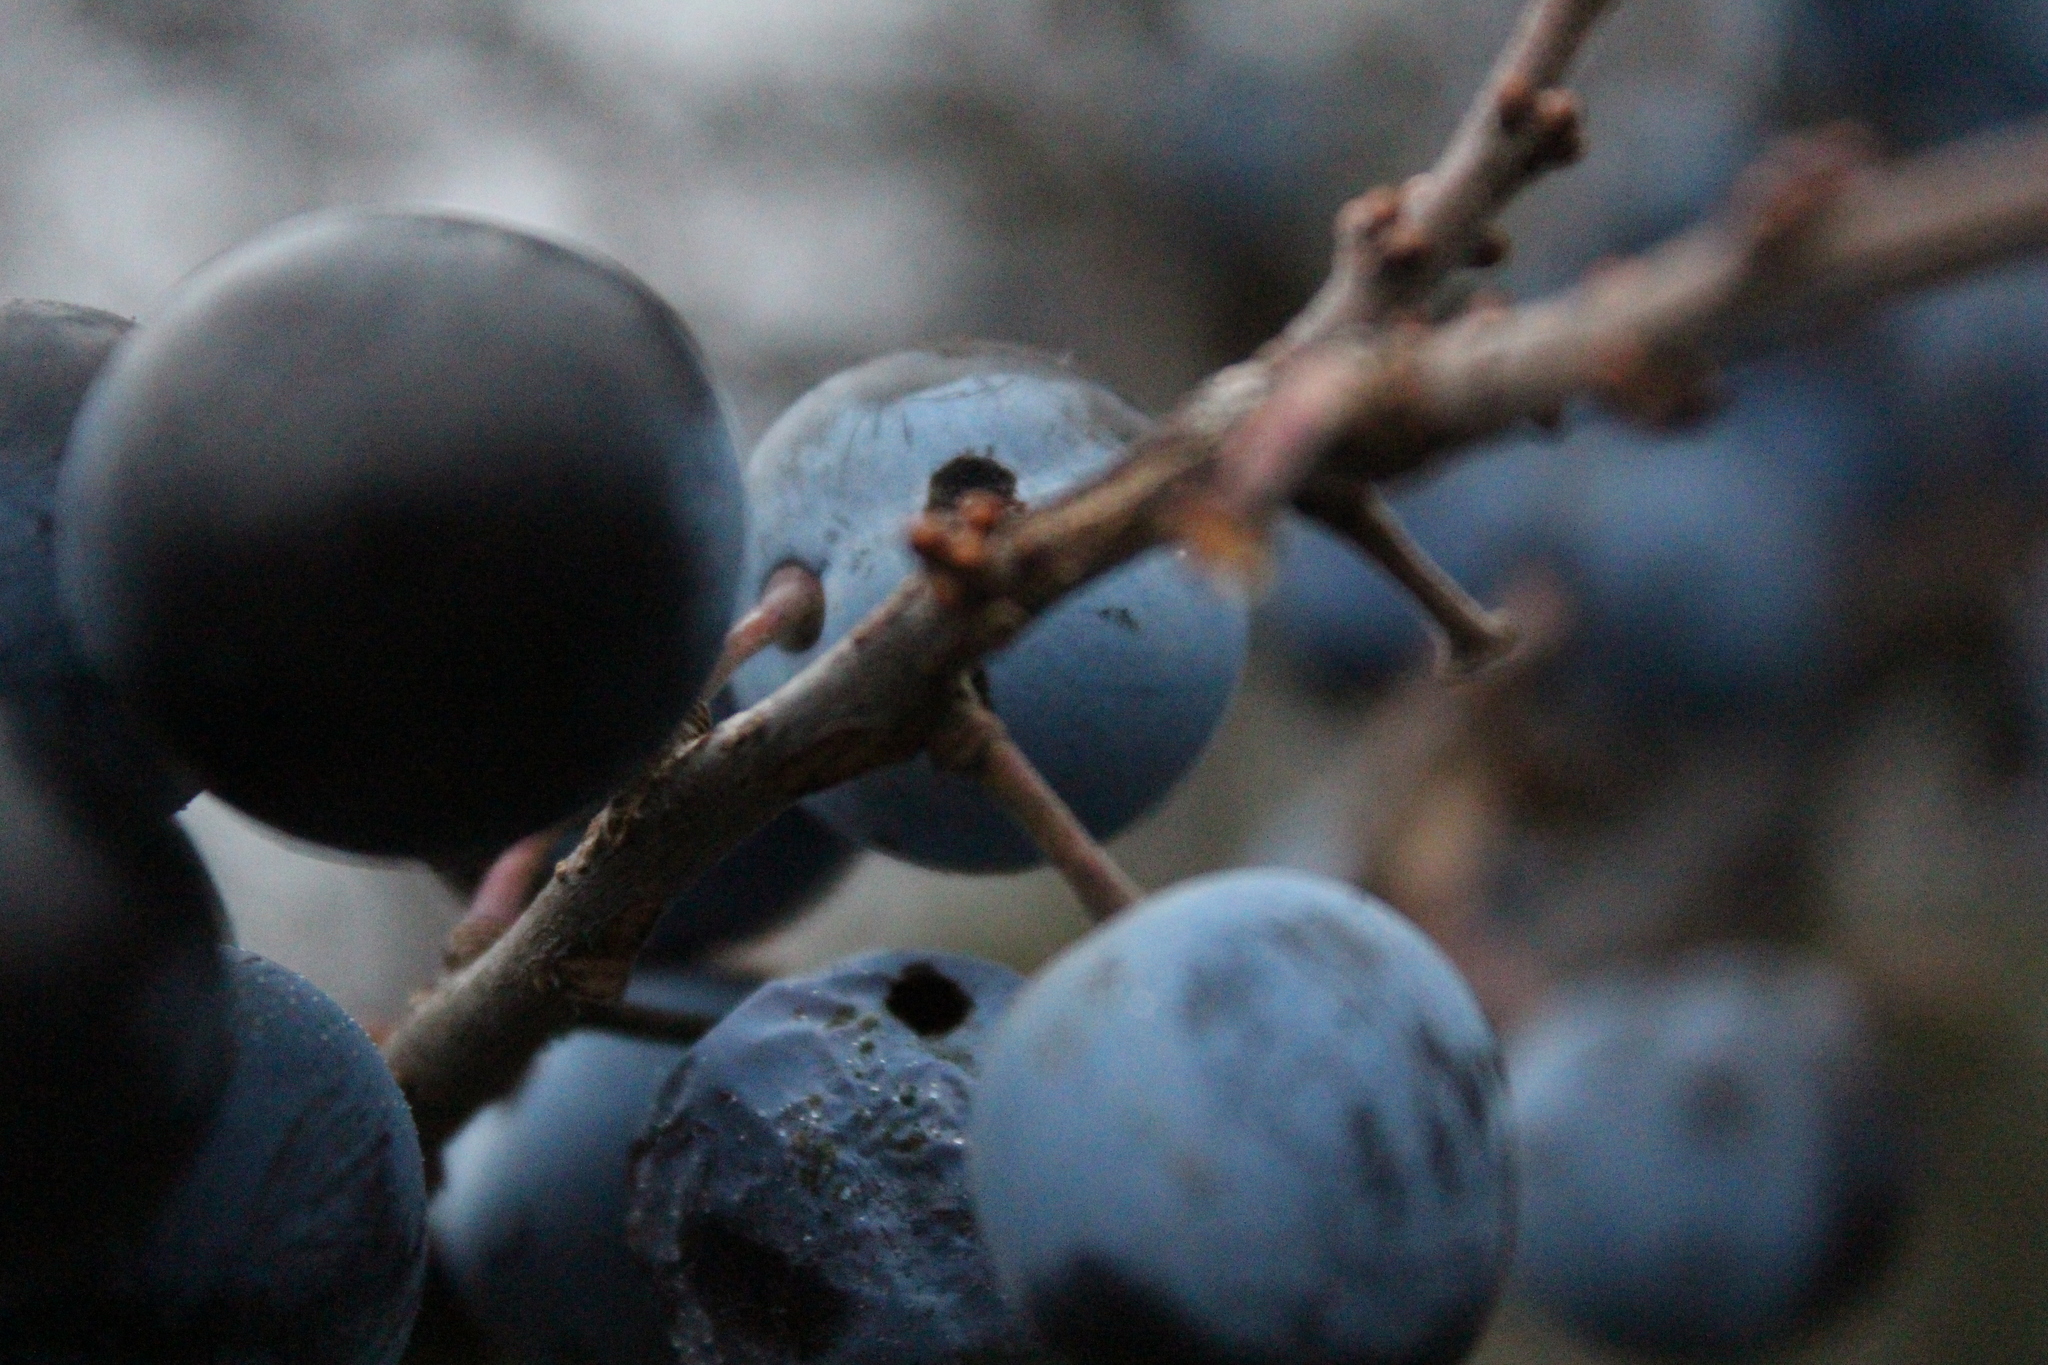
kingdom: Plantae
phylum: Tracheophyta
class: Magnoliopsida
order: Rosales
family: Rosaceae
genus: Prunus
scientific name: Prunus spinosa
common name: Blackthorn
